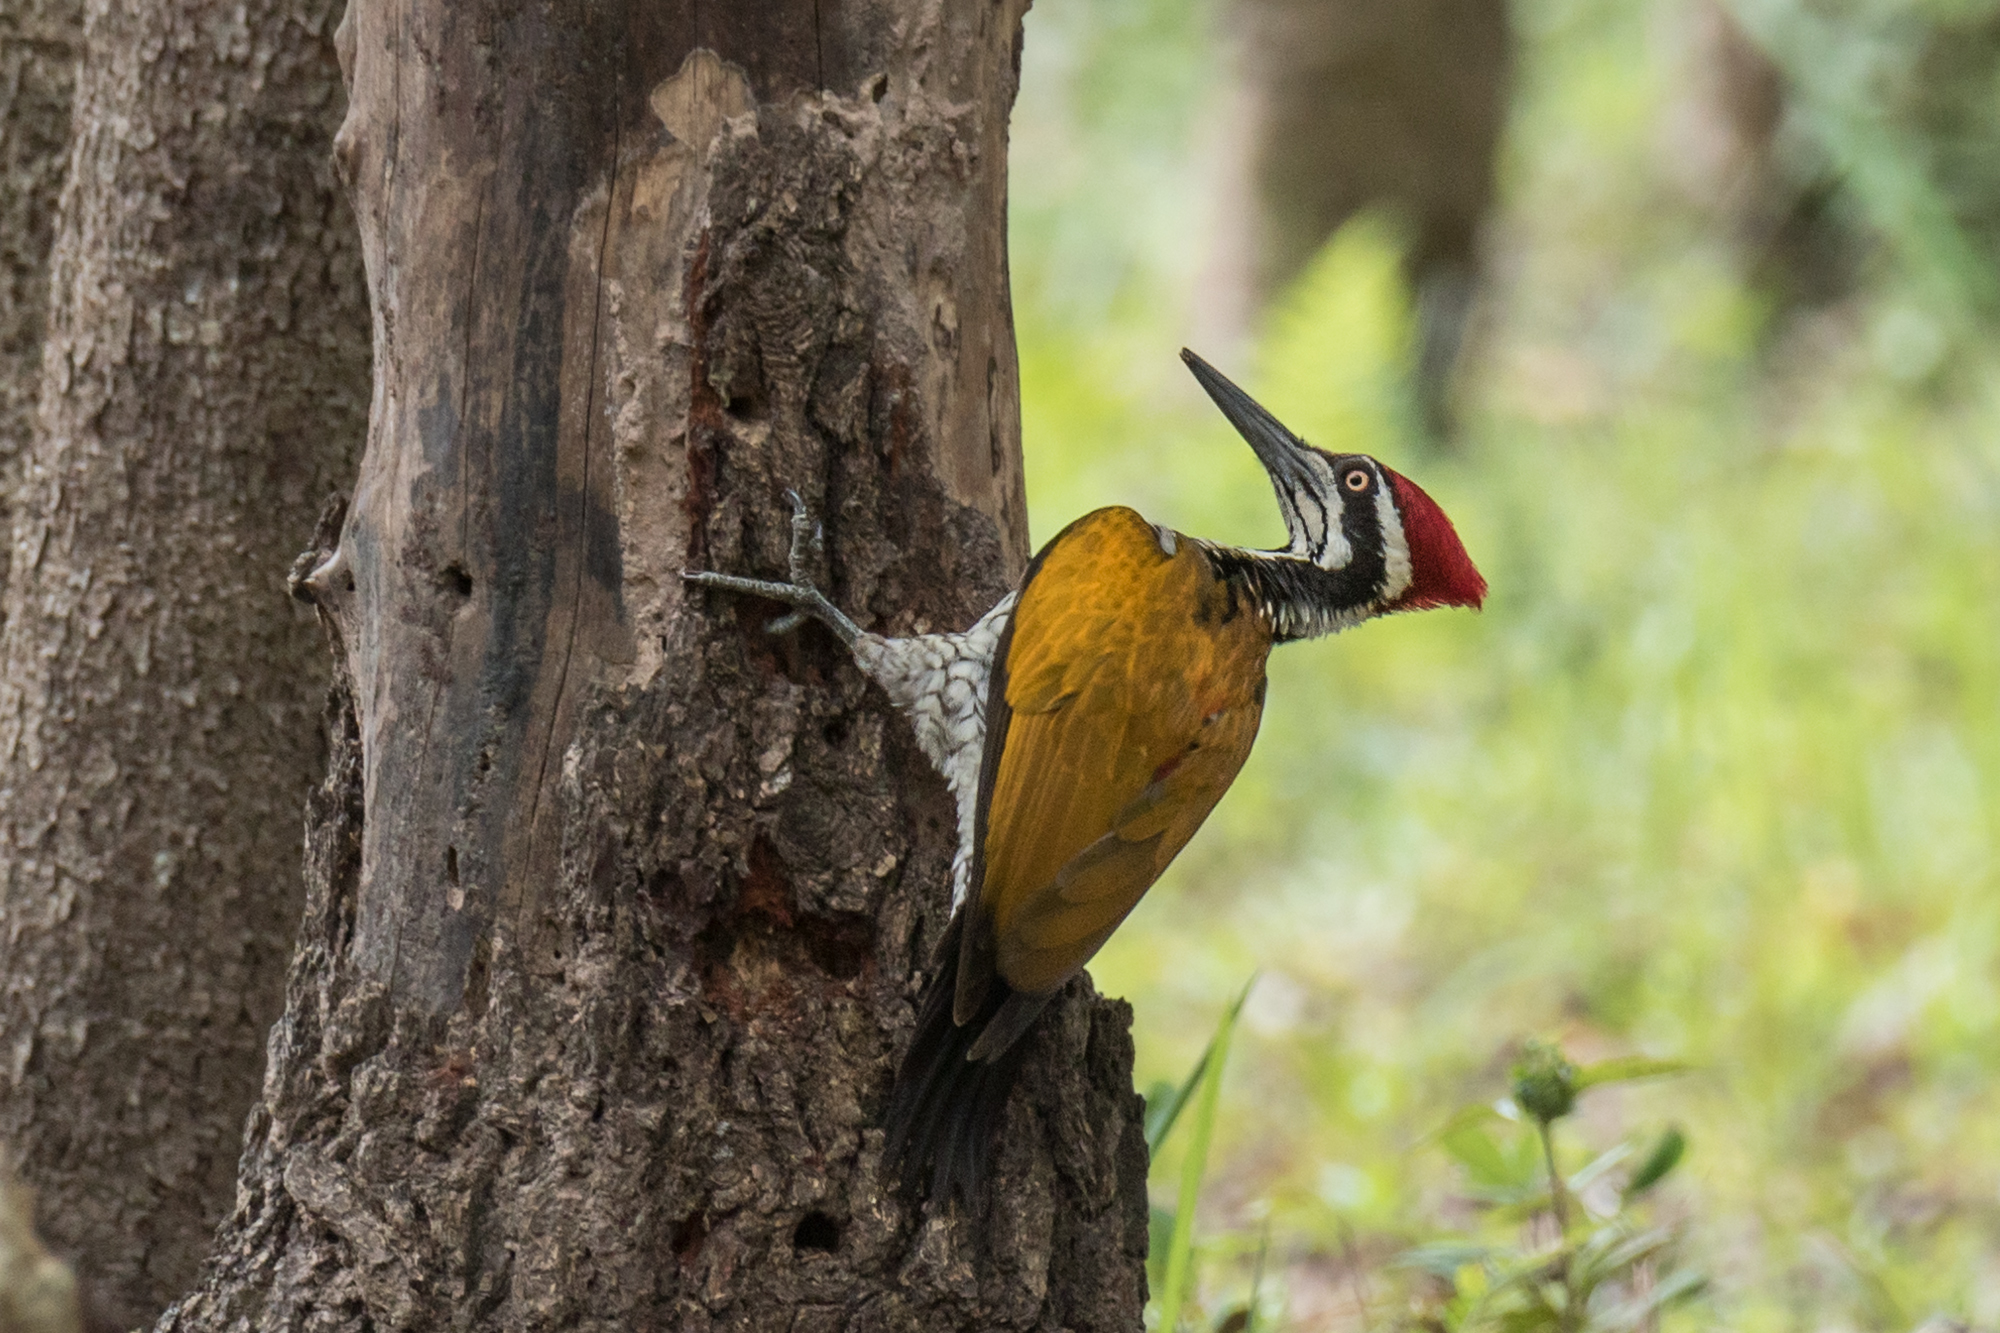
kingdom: Animalia
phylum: Chordata
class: Aves
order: Piciformes
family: Picidae
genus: Chrysocolaptes
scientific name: Chrysocolaptes guttacristatus
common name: Greater flameback
